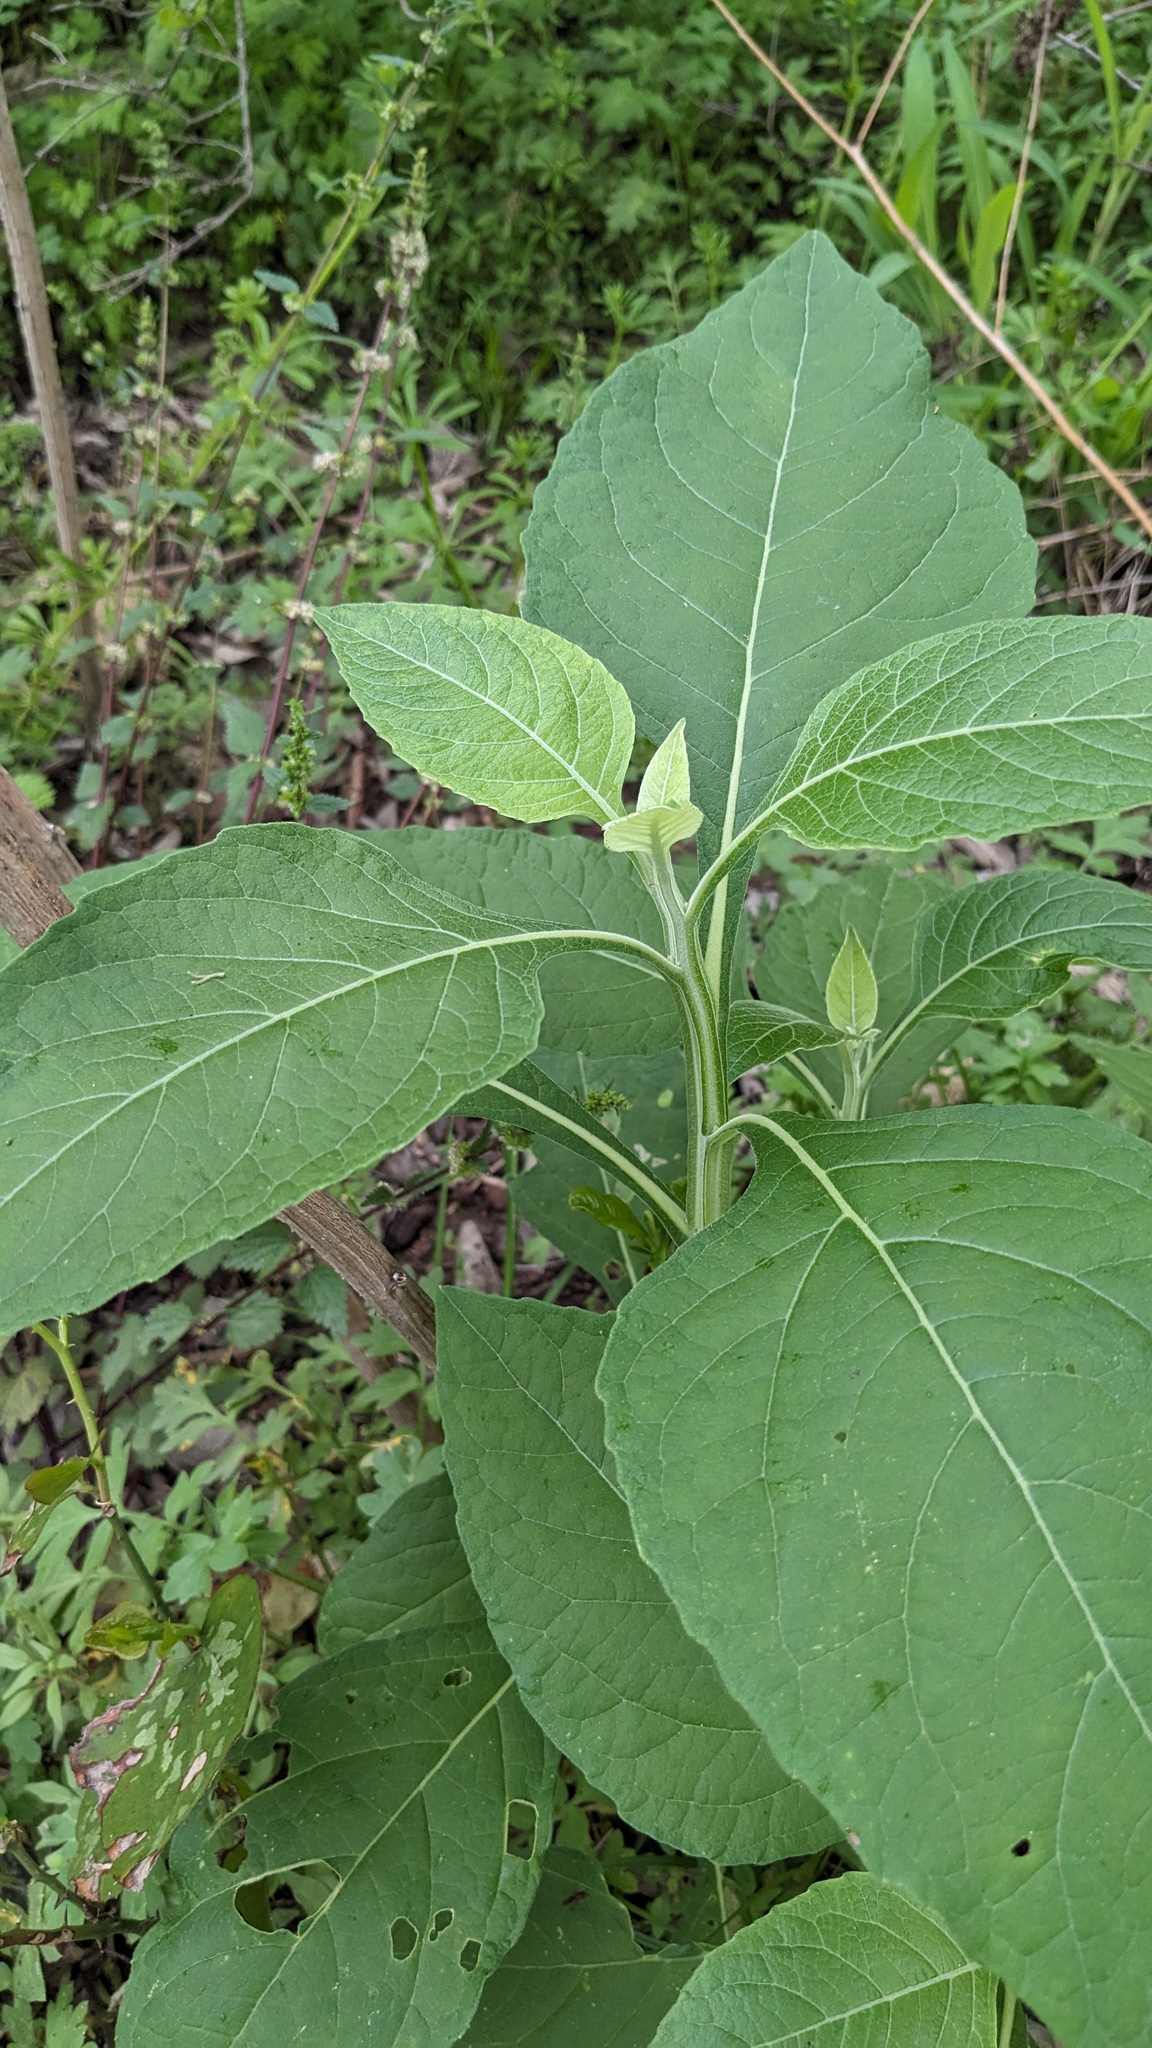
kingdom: Plantae
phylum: Tracheophyta
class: Magnoliopsida
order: Asterales
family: Asteraceae
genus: Verbesina
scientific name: Verbesina virginica
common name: Frostweed
